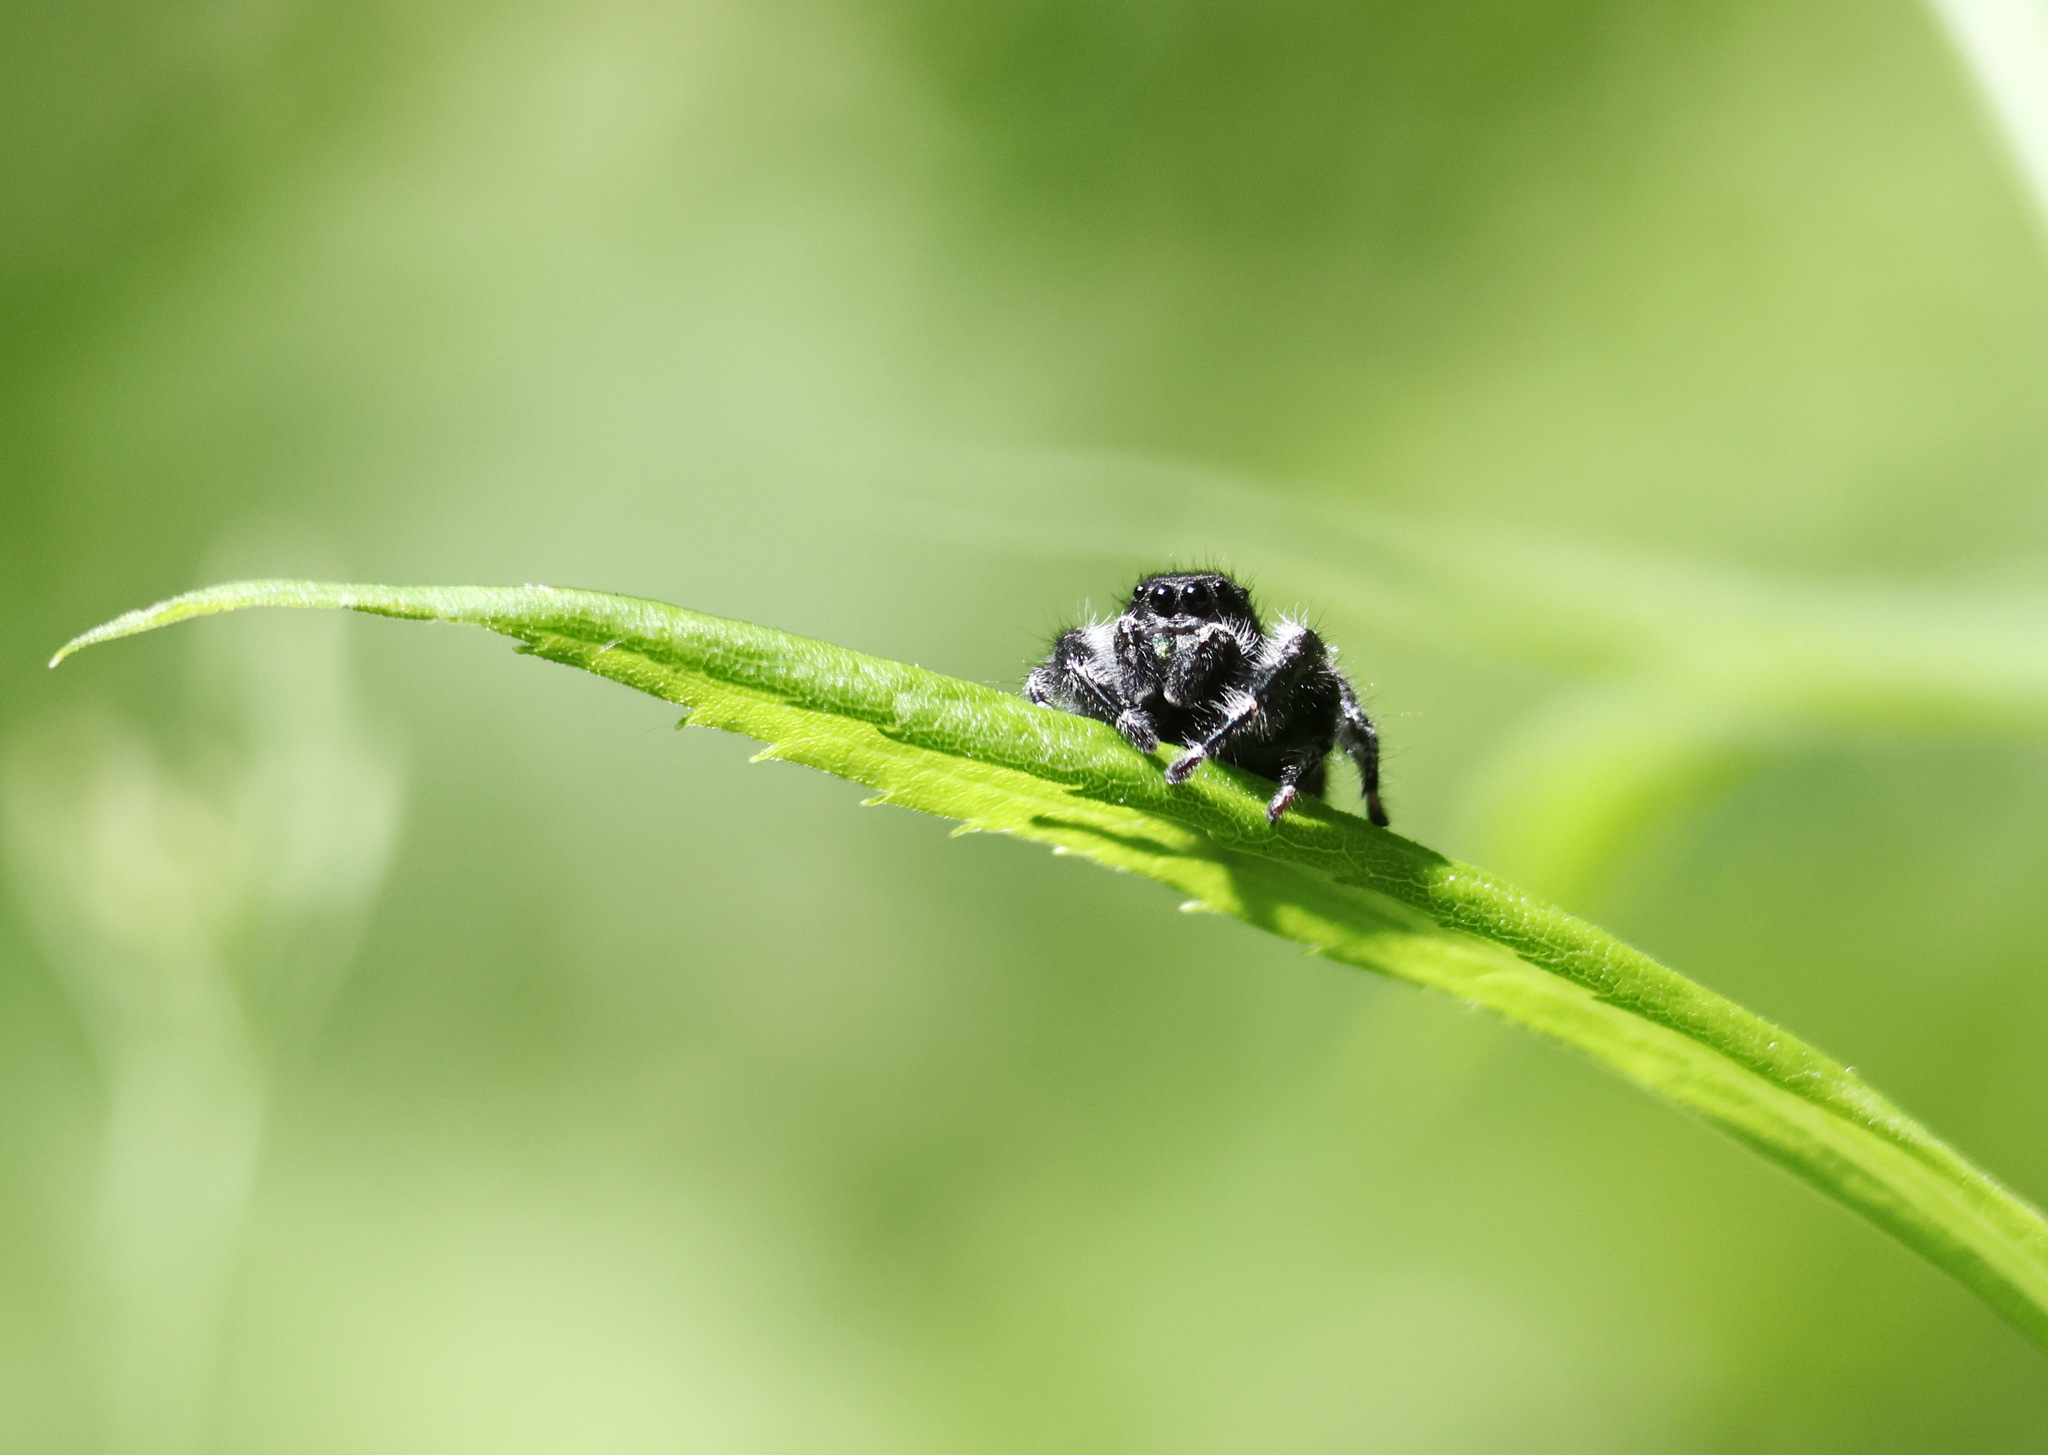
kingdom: Animalia
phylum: Arthropoda
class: Arachnida
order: Araneae
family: Salticidae
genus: Phidippus
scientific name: Phidippus audax
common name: Bold jumper
